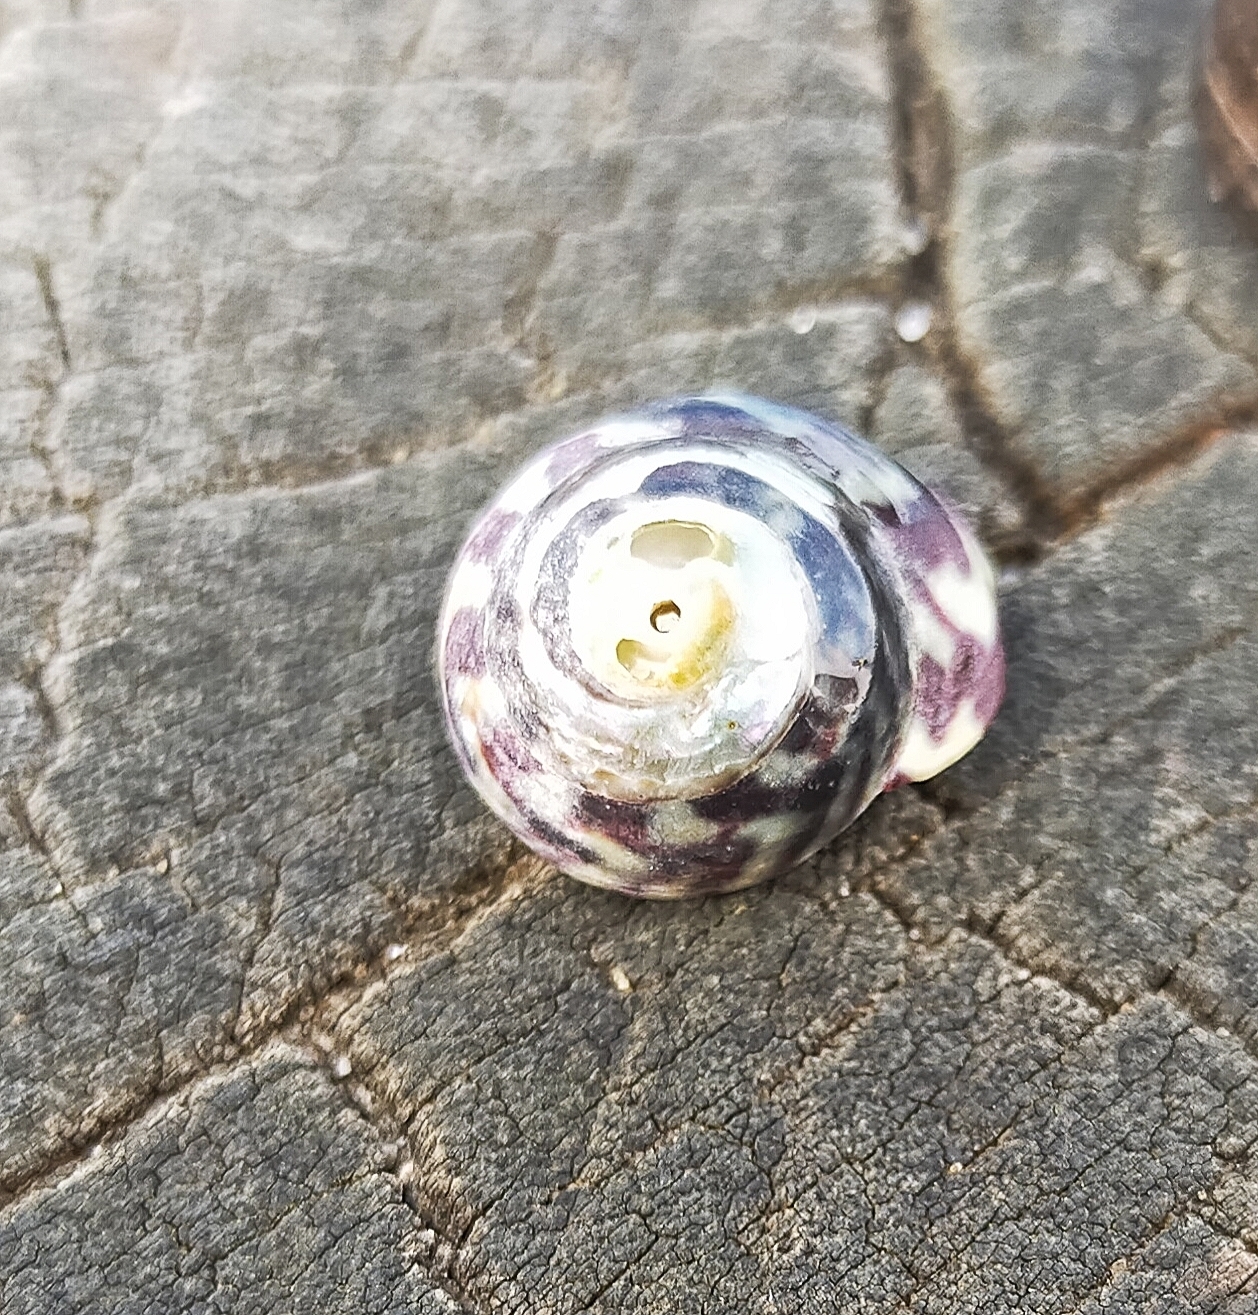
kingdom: Animalia
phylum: Mollusca
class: Gastropoda
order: Trochida
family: Trochidae
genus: Steromphala
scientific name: Steromphala umbilicalis
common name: Flat top shell
